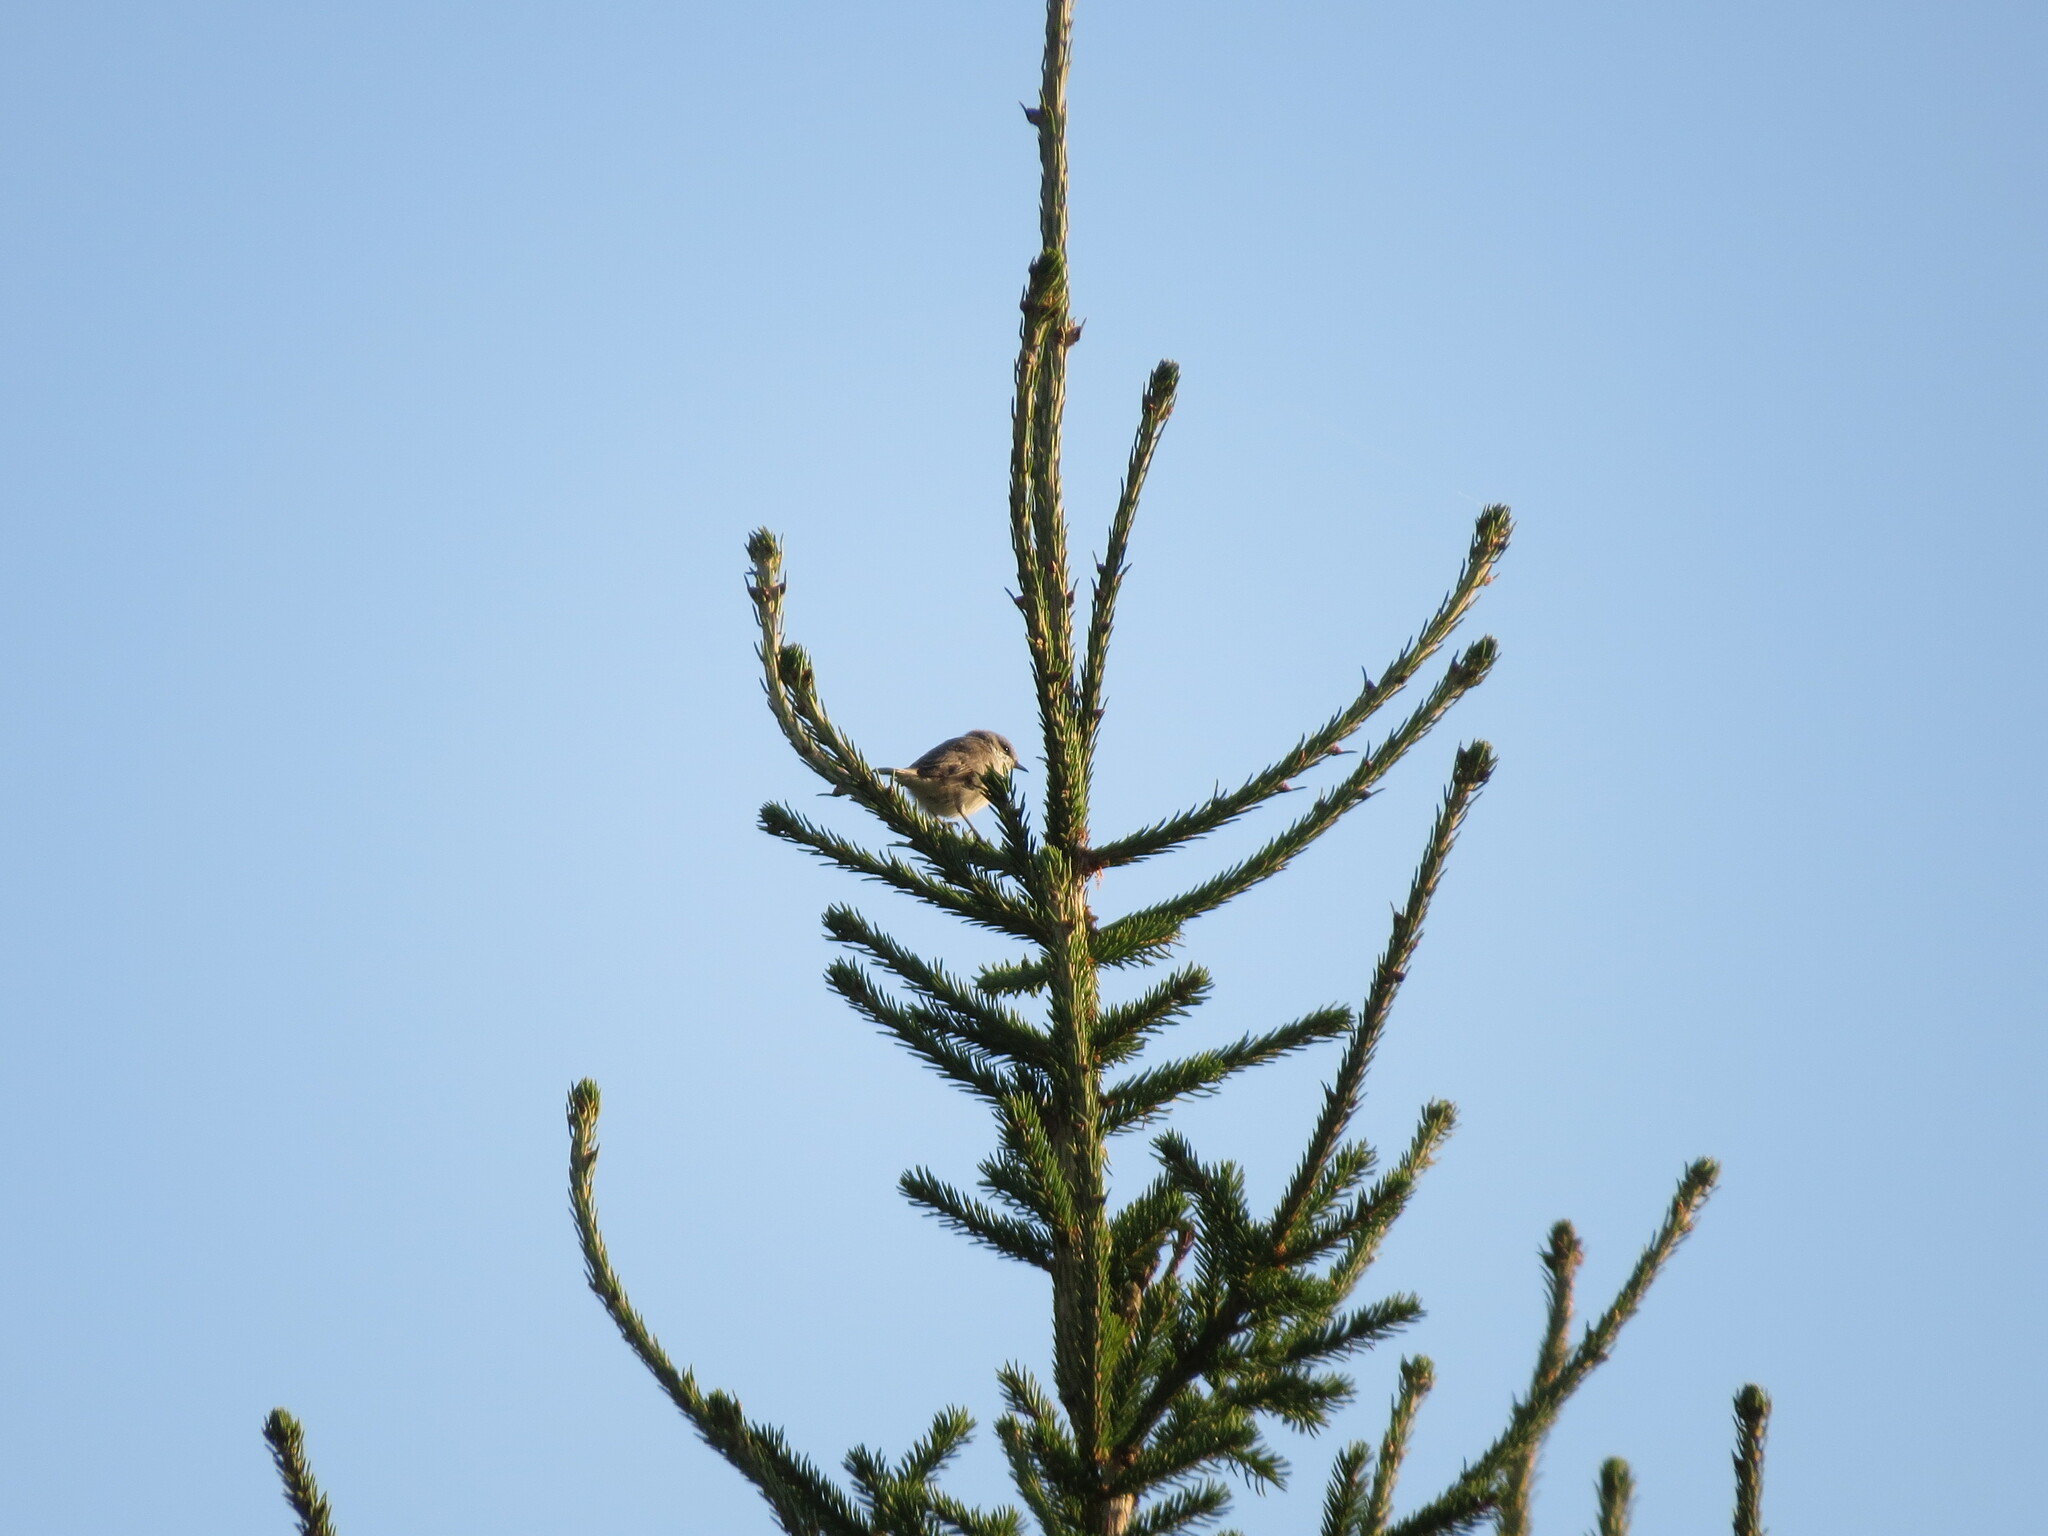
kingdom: Animalia
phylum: Chordata
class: Aves
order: Passeriformes
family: Sylviidae
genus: Sylvia
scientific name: Sylvia curruca
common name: Lesser whitethroat
